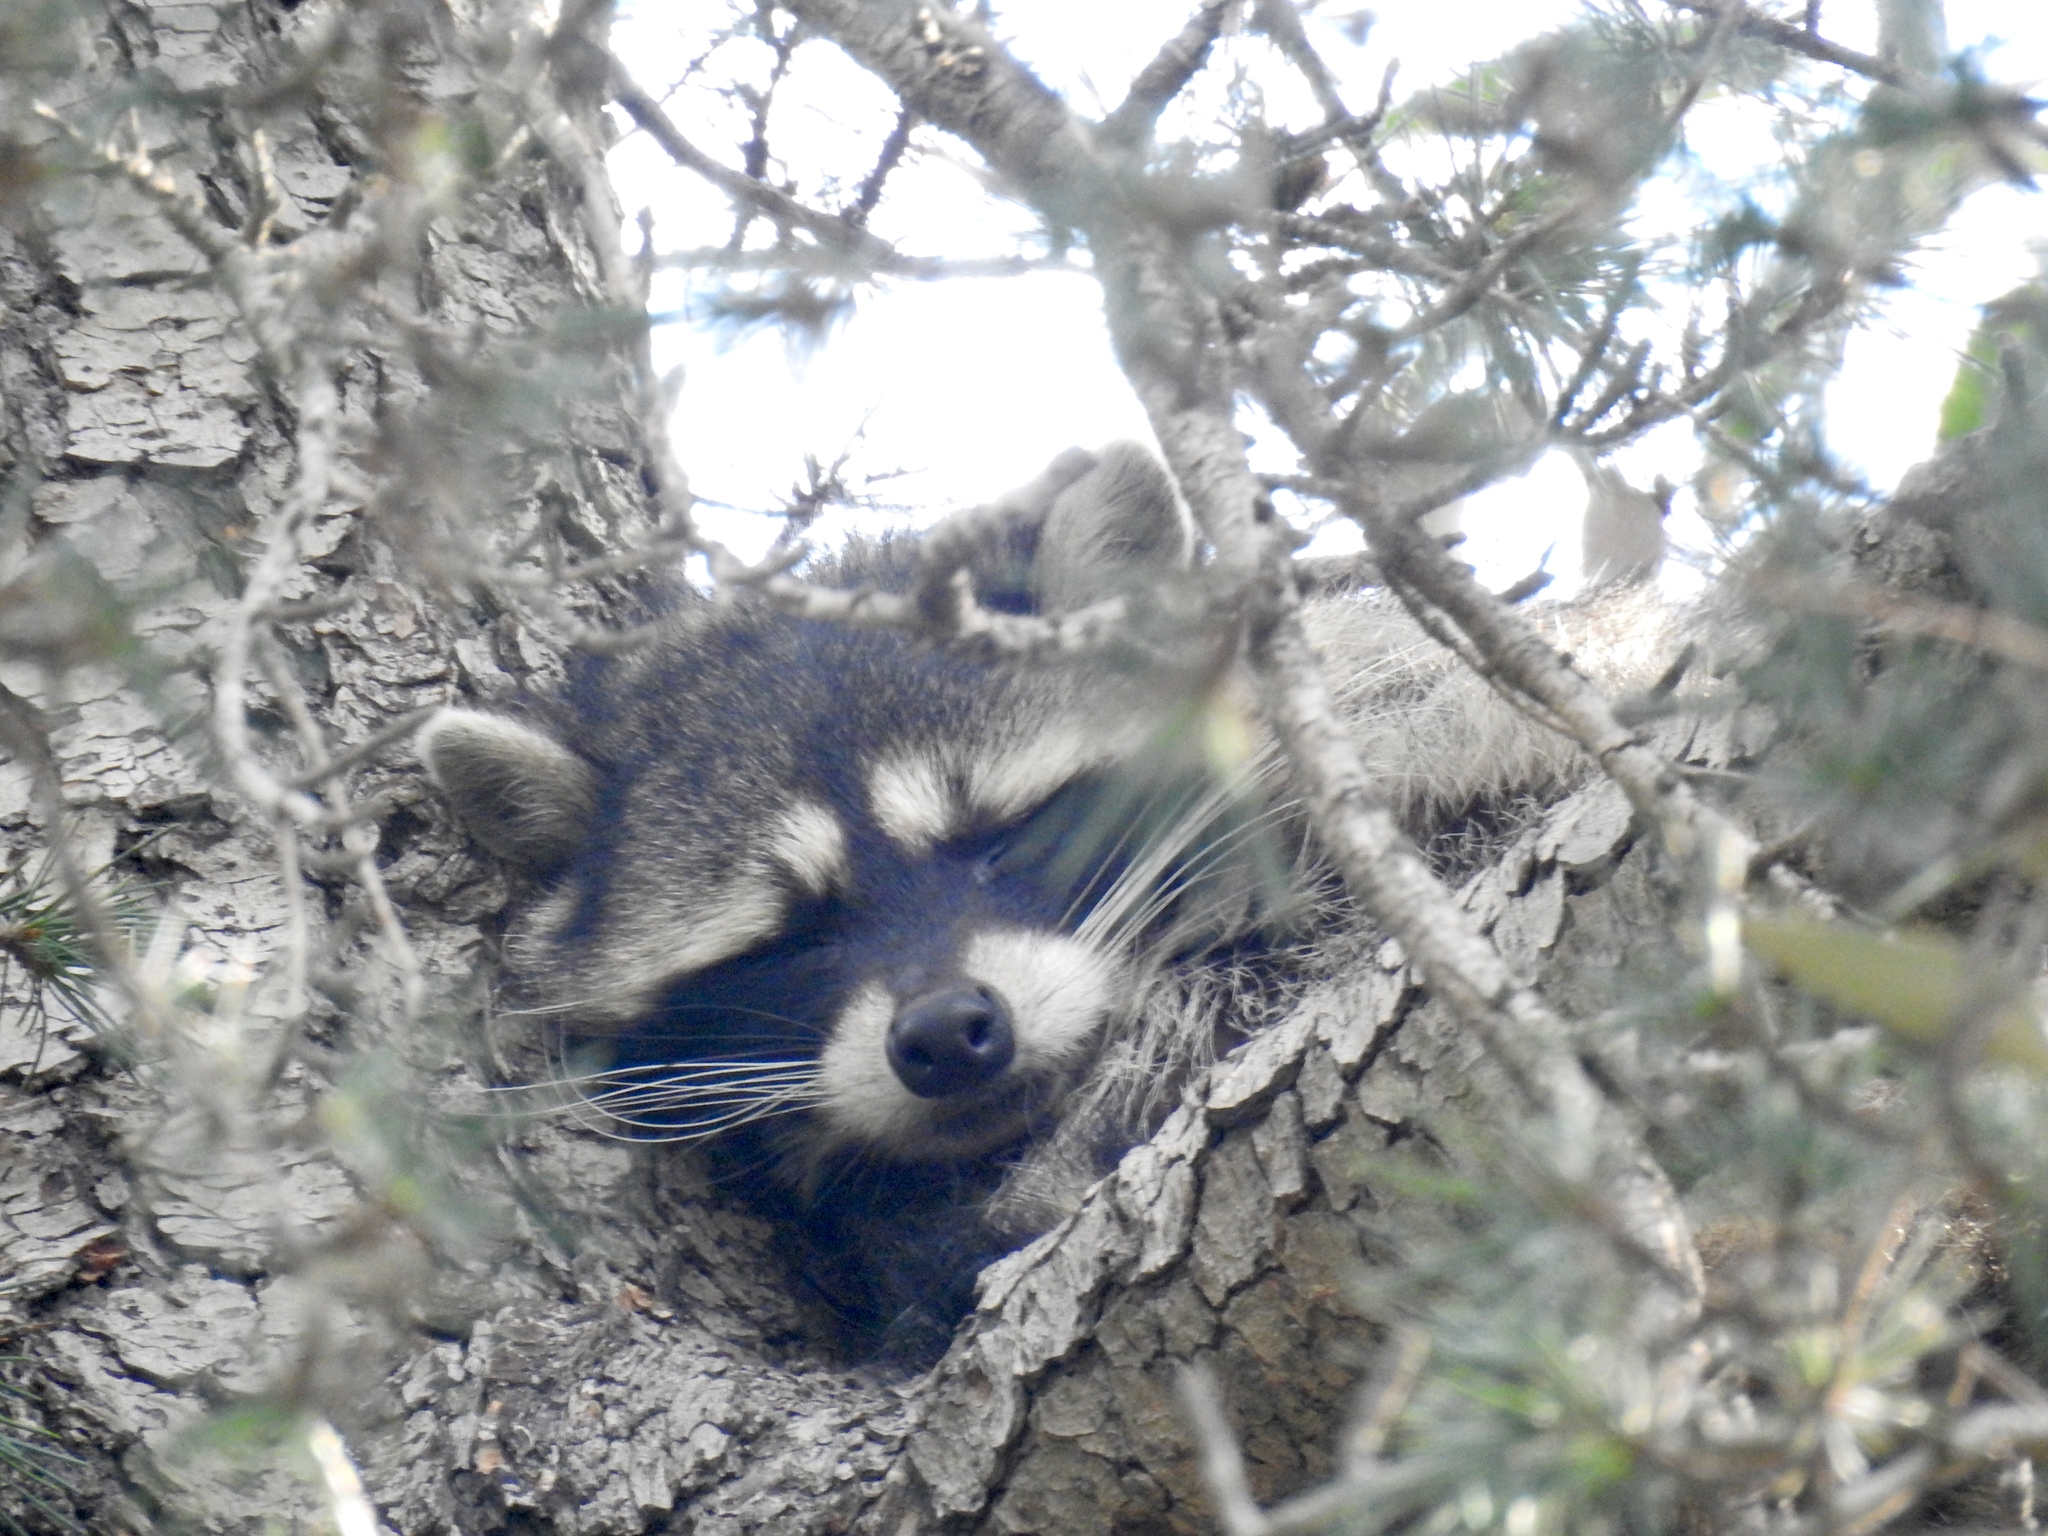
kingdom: Animalia
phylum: Chordata
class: Mammalia
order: Carnivora
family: Procyonidae
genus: Procyon
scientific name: Procyon lotor
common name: Raccoon
